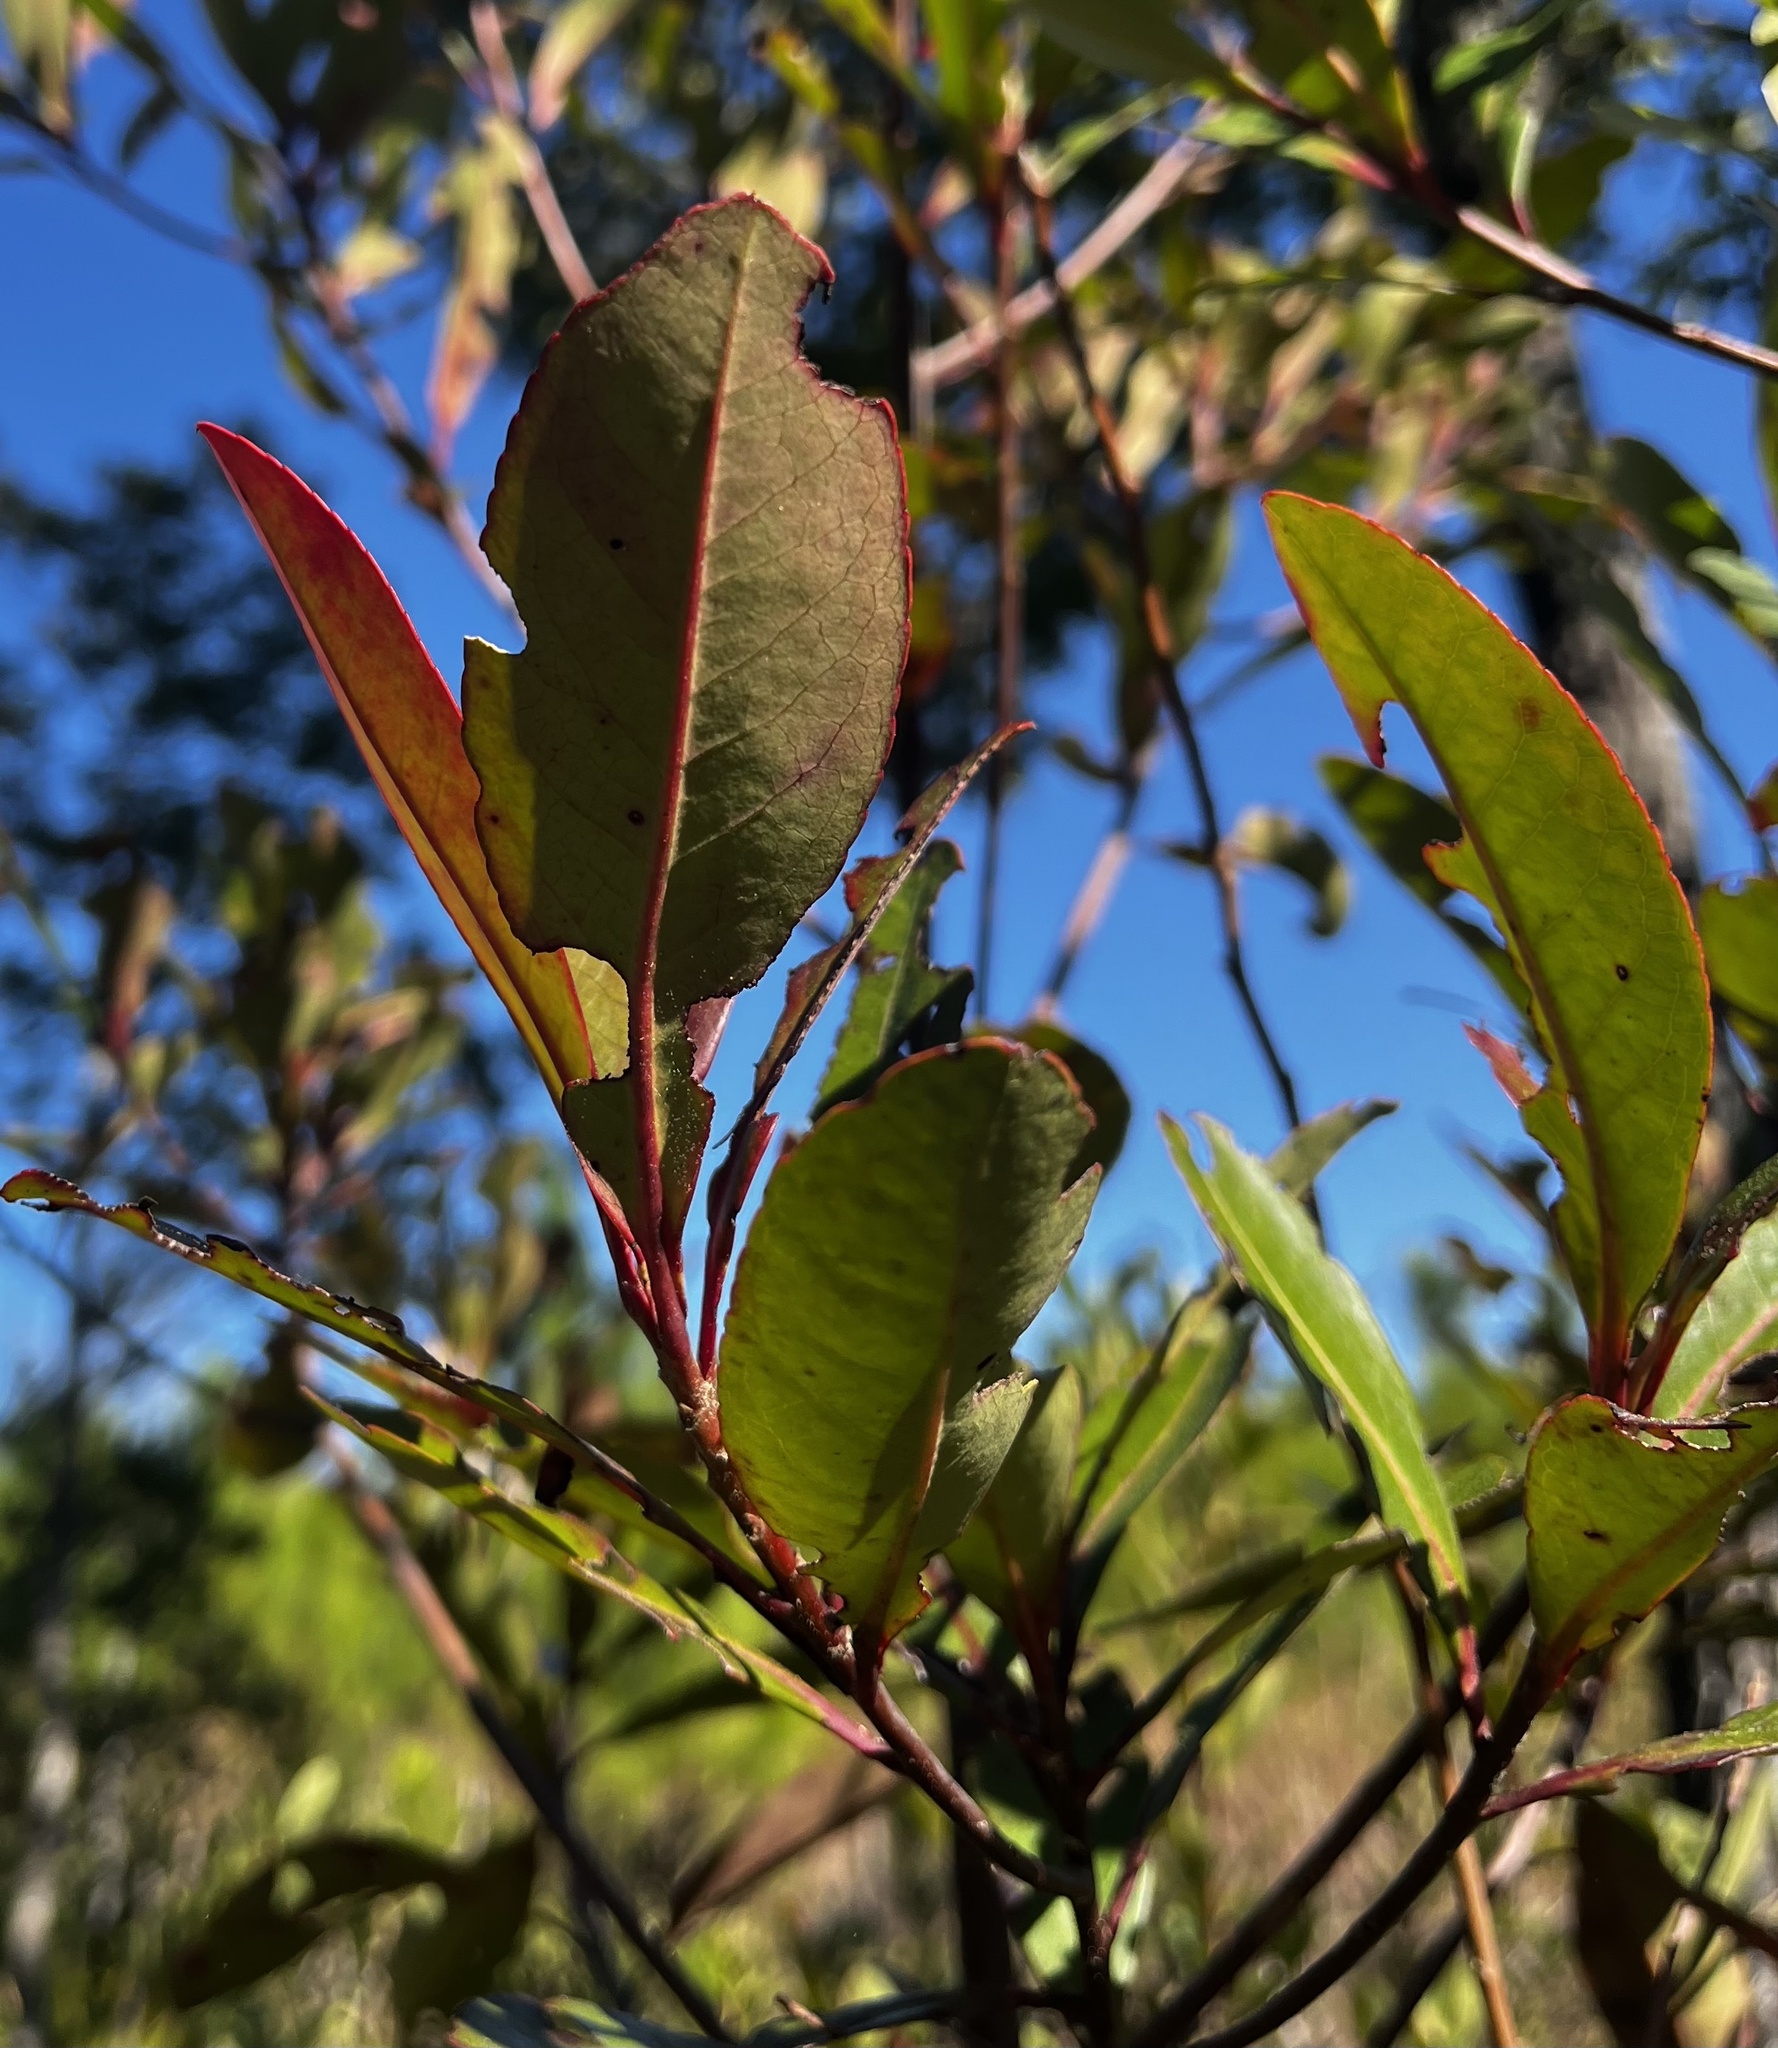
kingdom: Plantae
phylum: Tracheophyta
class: Magnoliopsida
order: Ericales
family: Theaceae
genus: Gordonia
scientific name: Gordonia lasianthus
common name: Loblolly bay
